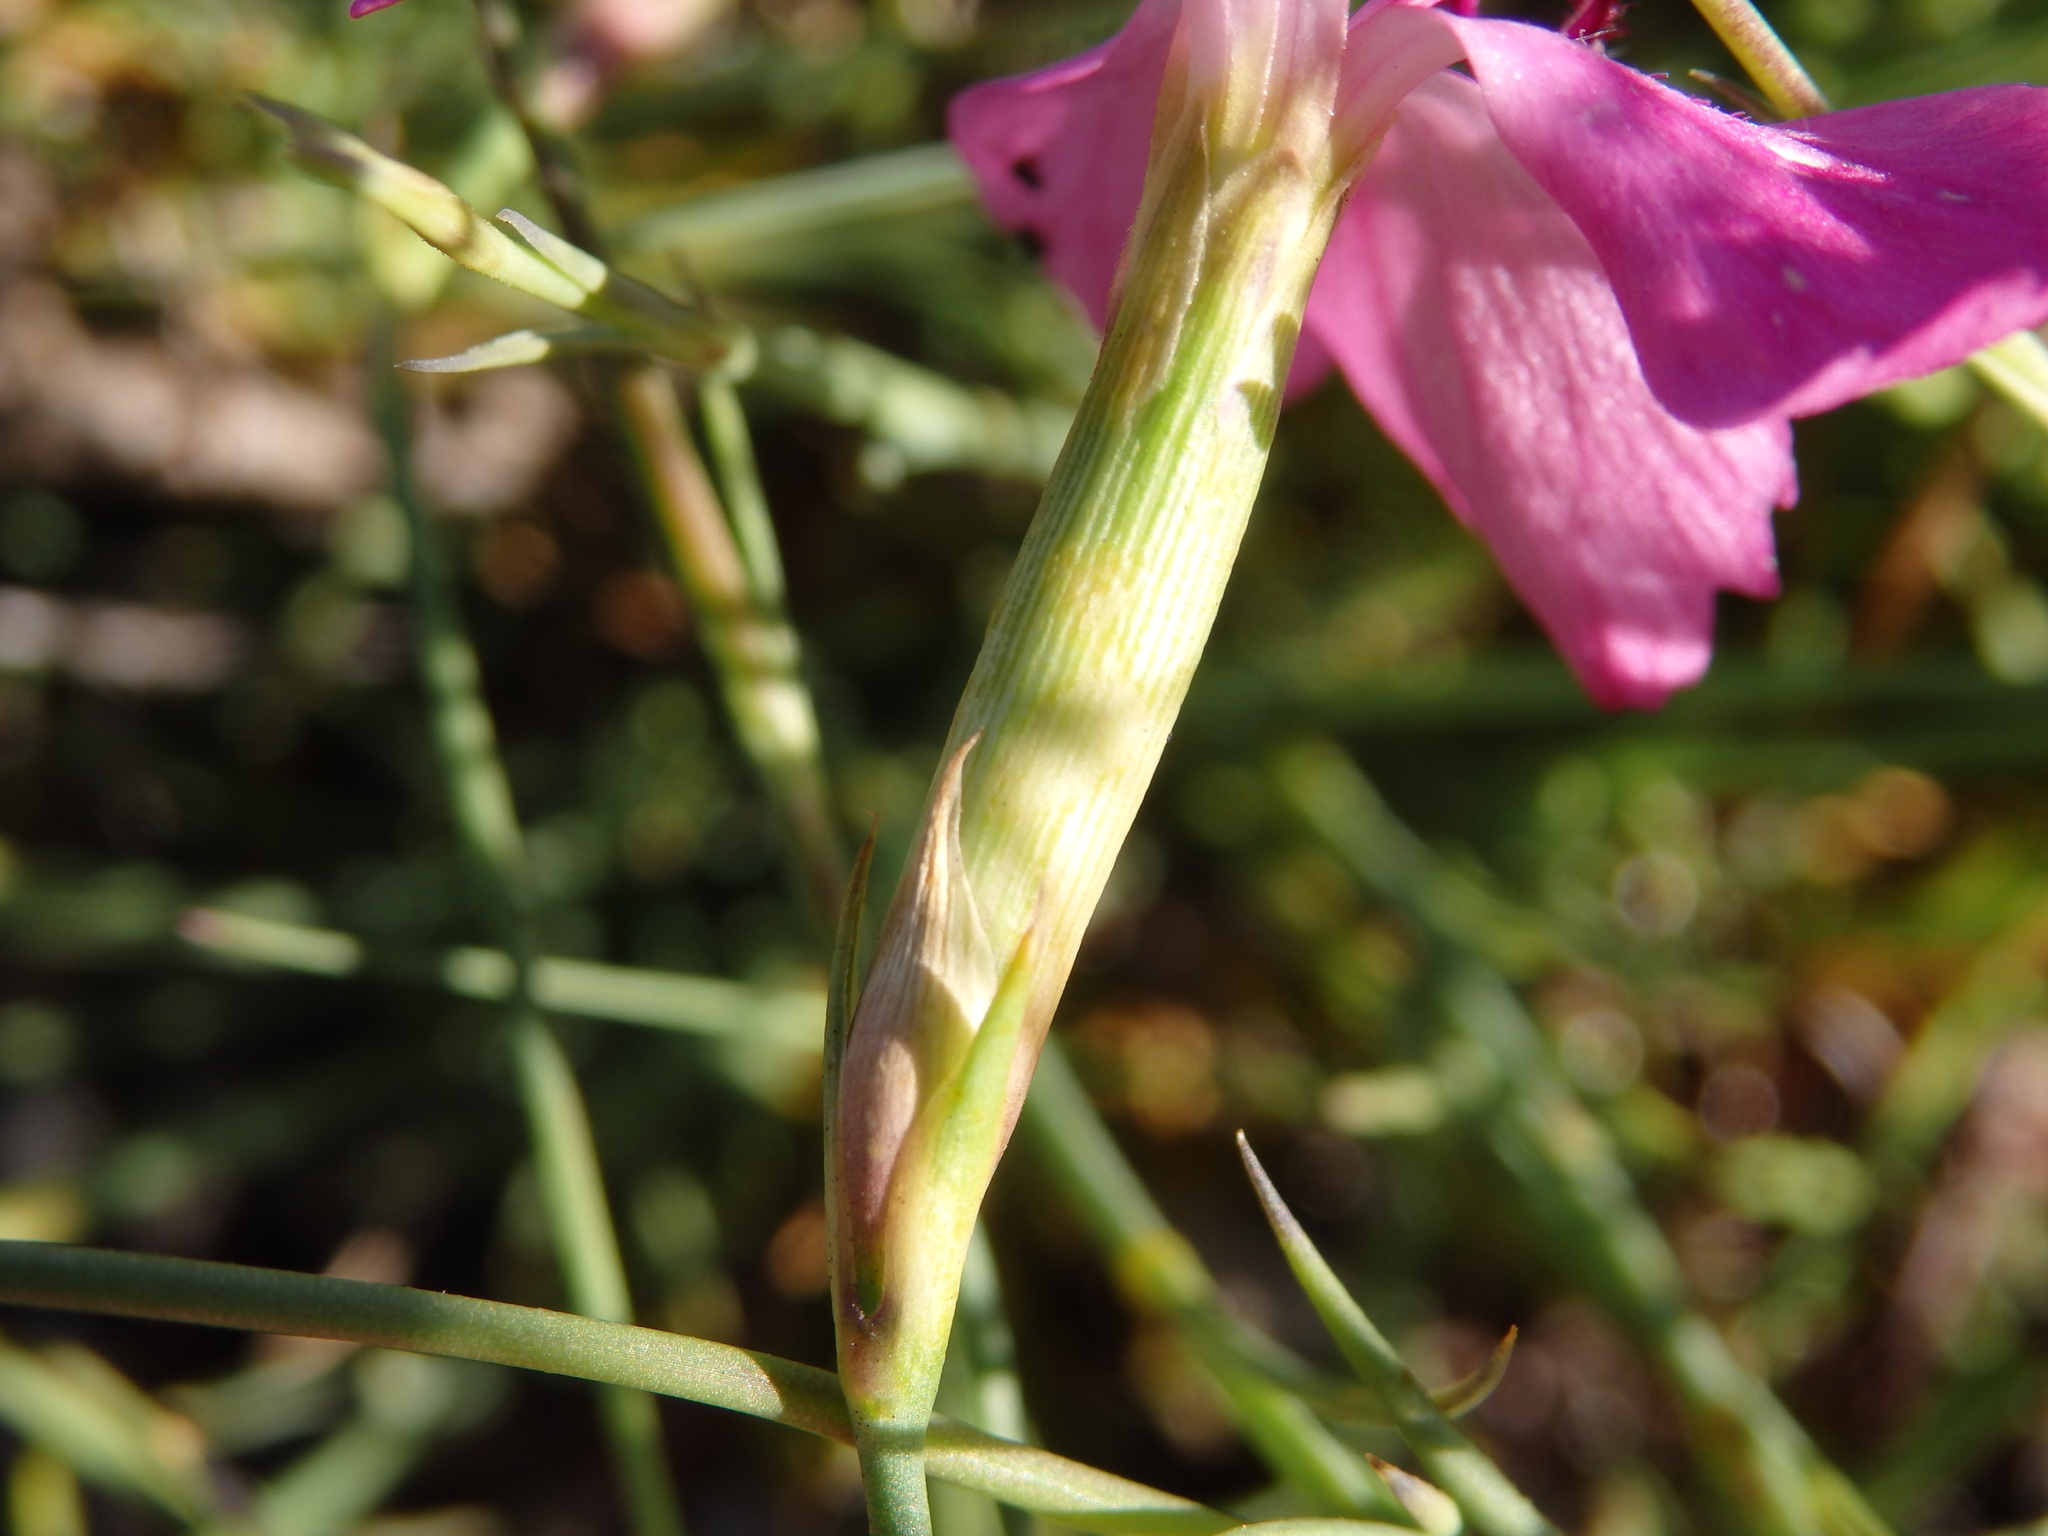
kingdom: Plantae
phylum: Tracheophyta
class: Magnoliopsida
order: Caryophyllales
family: Caryophyllaceae
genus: Dianthus
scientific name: Dianthus laricifolius
